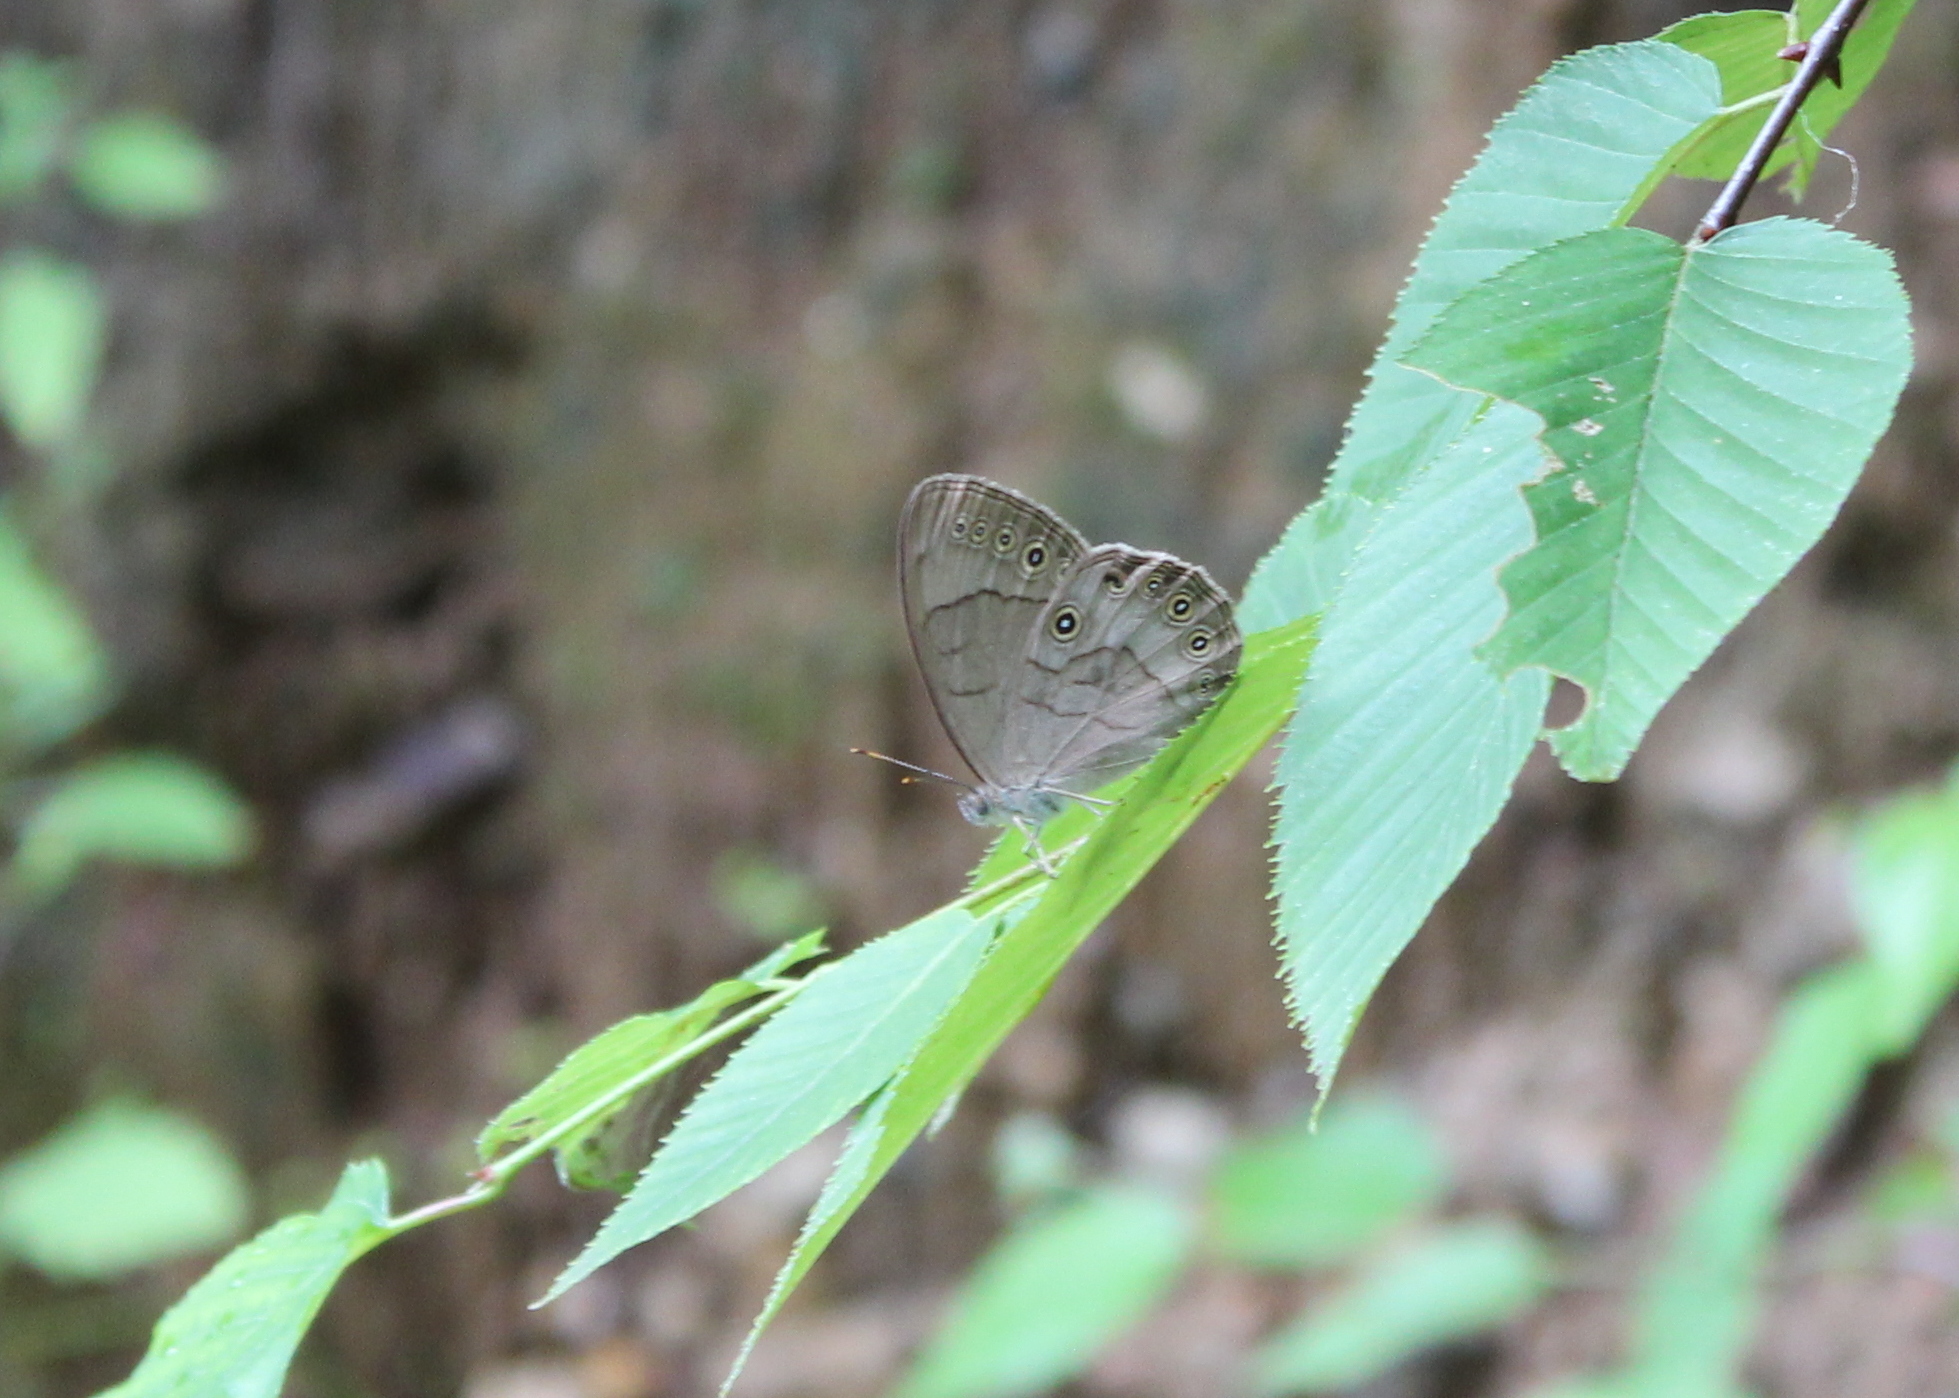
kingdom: Animalia
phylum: Arthropoda
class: Insecta
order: Lepidoptera
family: Nymphalidae
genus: Lethe
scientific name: Lethe eurydice
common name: Eyed brown
